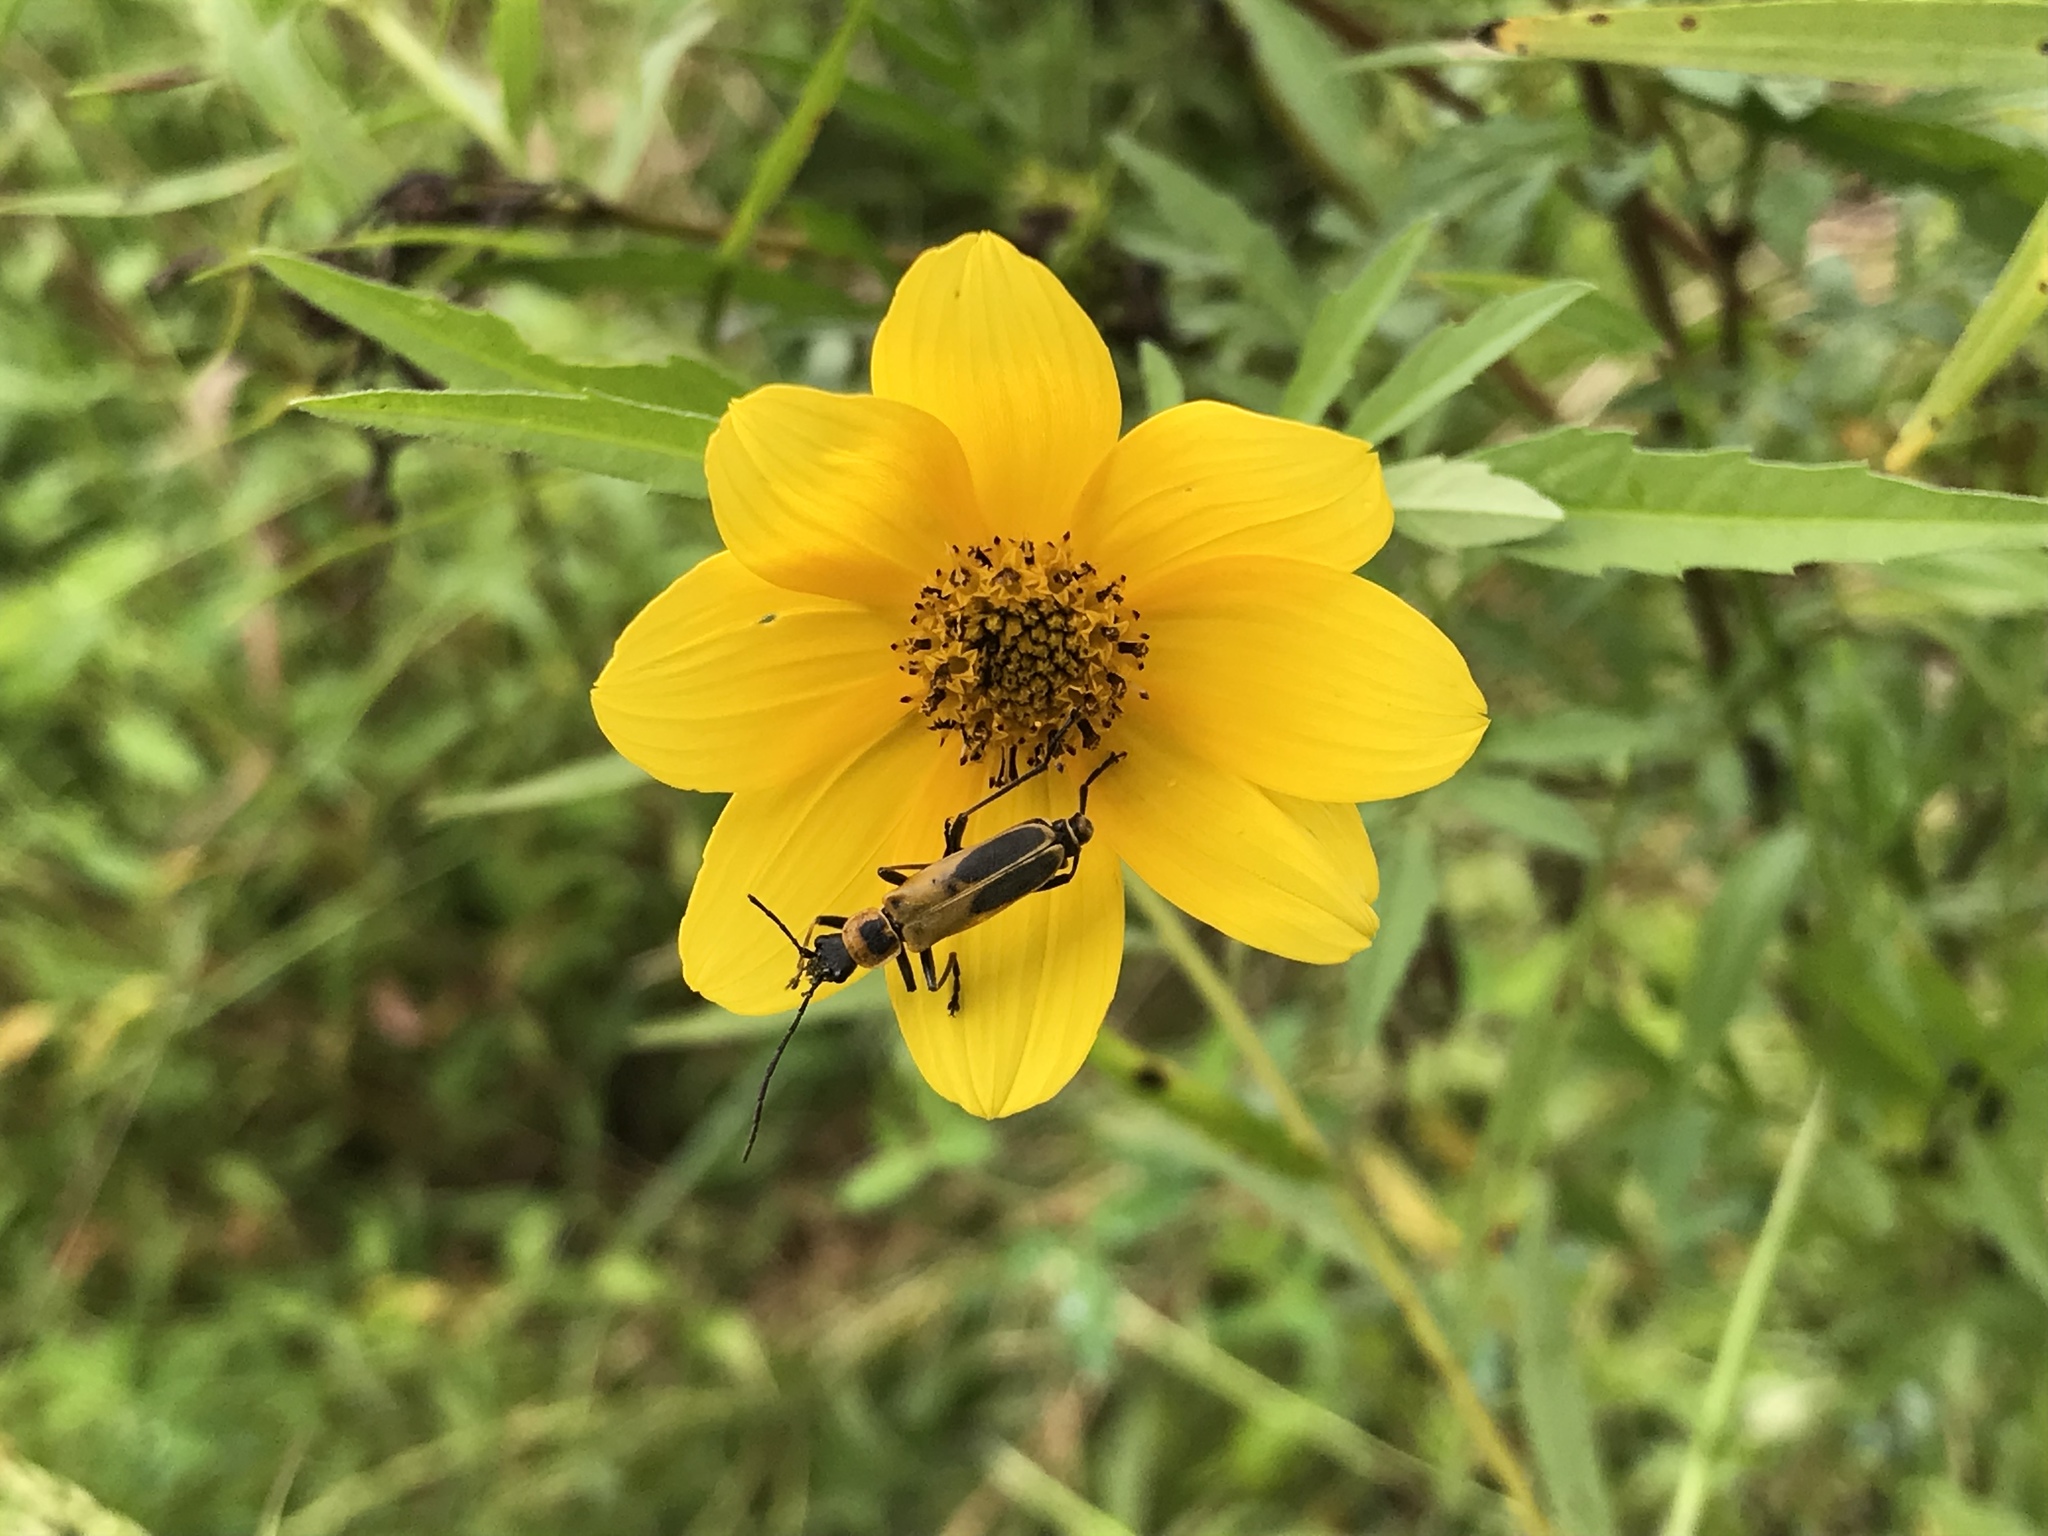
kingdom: Animalia
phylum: Arthropoda
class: Insecta
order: Coleoptera
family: Cantharidae
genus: Chauliognathus
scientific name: Chauliognathus pensylvanicus
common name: Goldenrod soldier beetle
